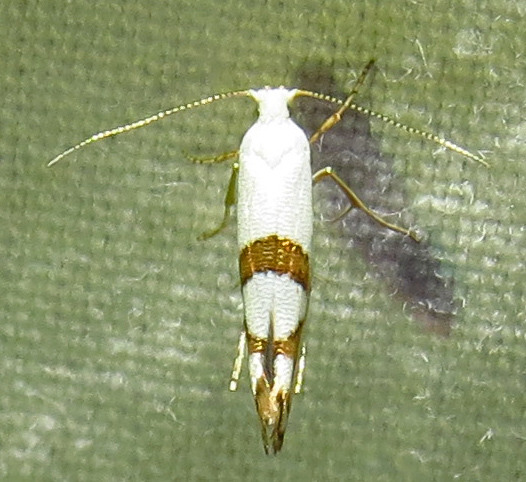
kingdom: Animalia
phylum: Arthropoda
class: Insecta
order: Lepidoptera
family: Argyresthiidae
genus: Argyresthia
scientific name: Argyresthia oreasella
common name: Cherry shoot borer moth
